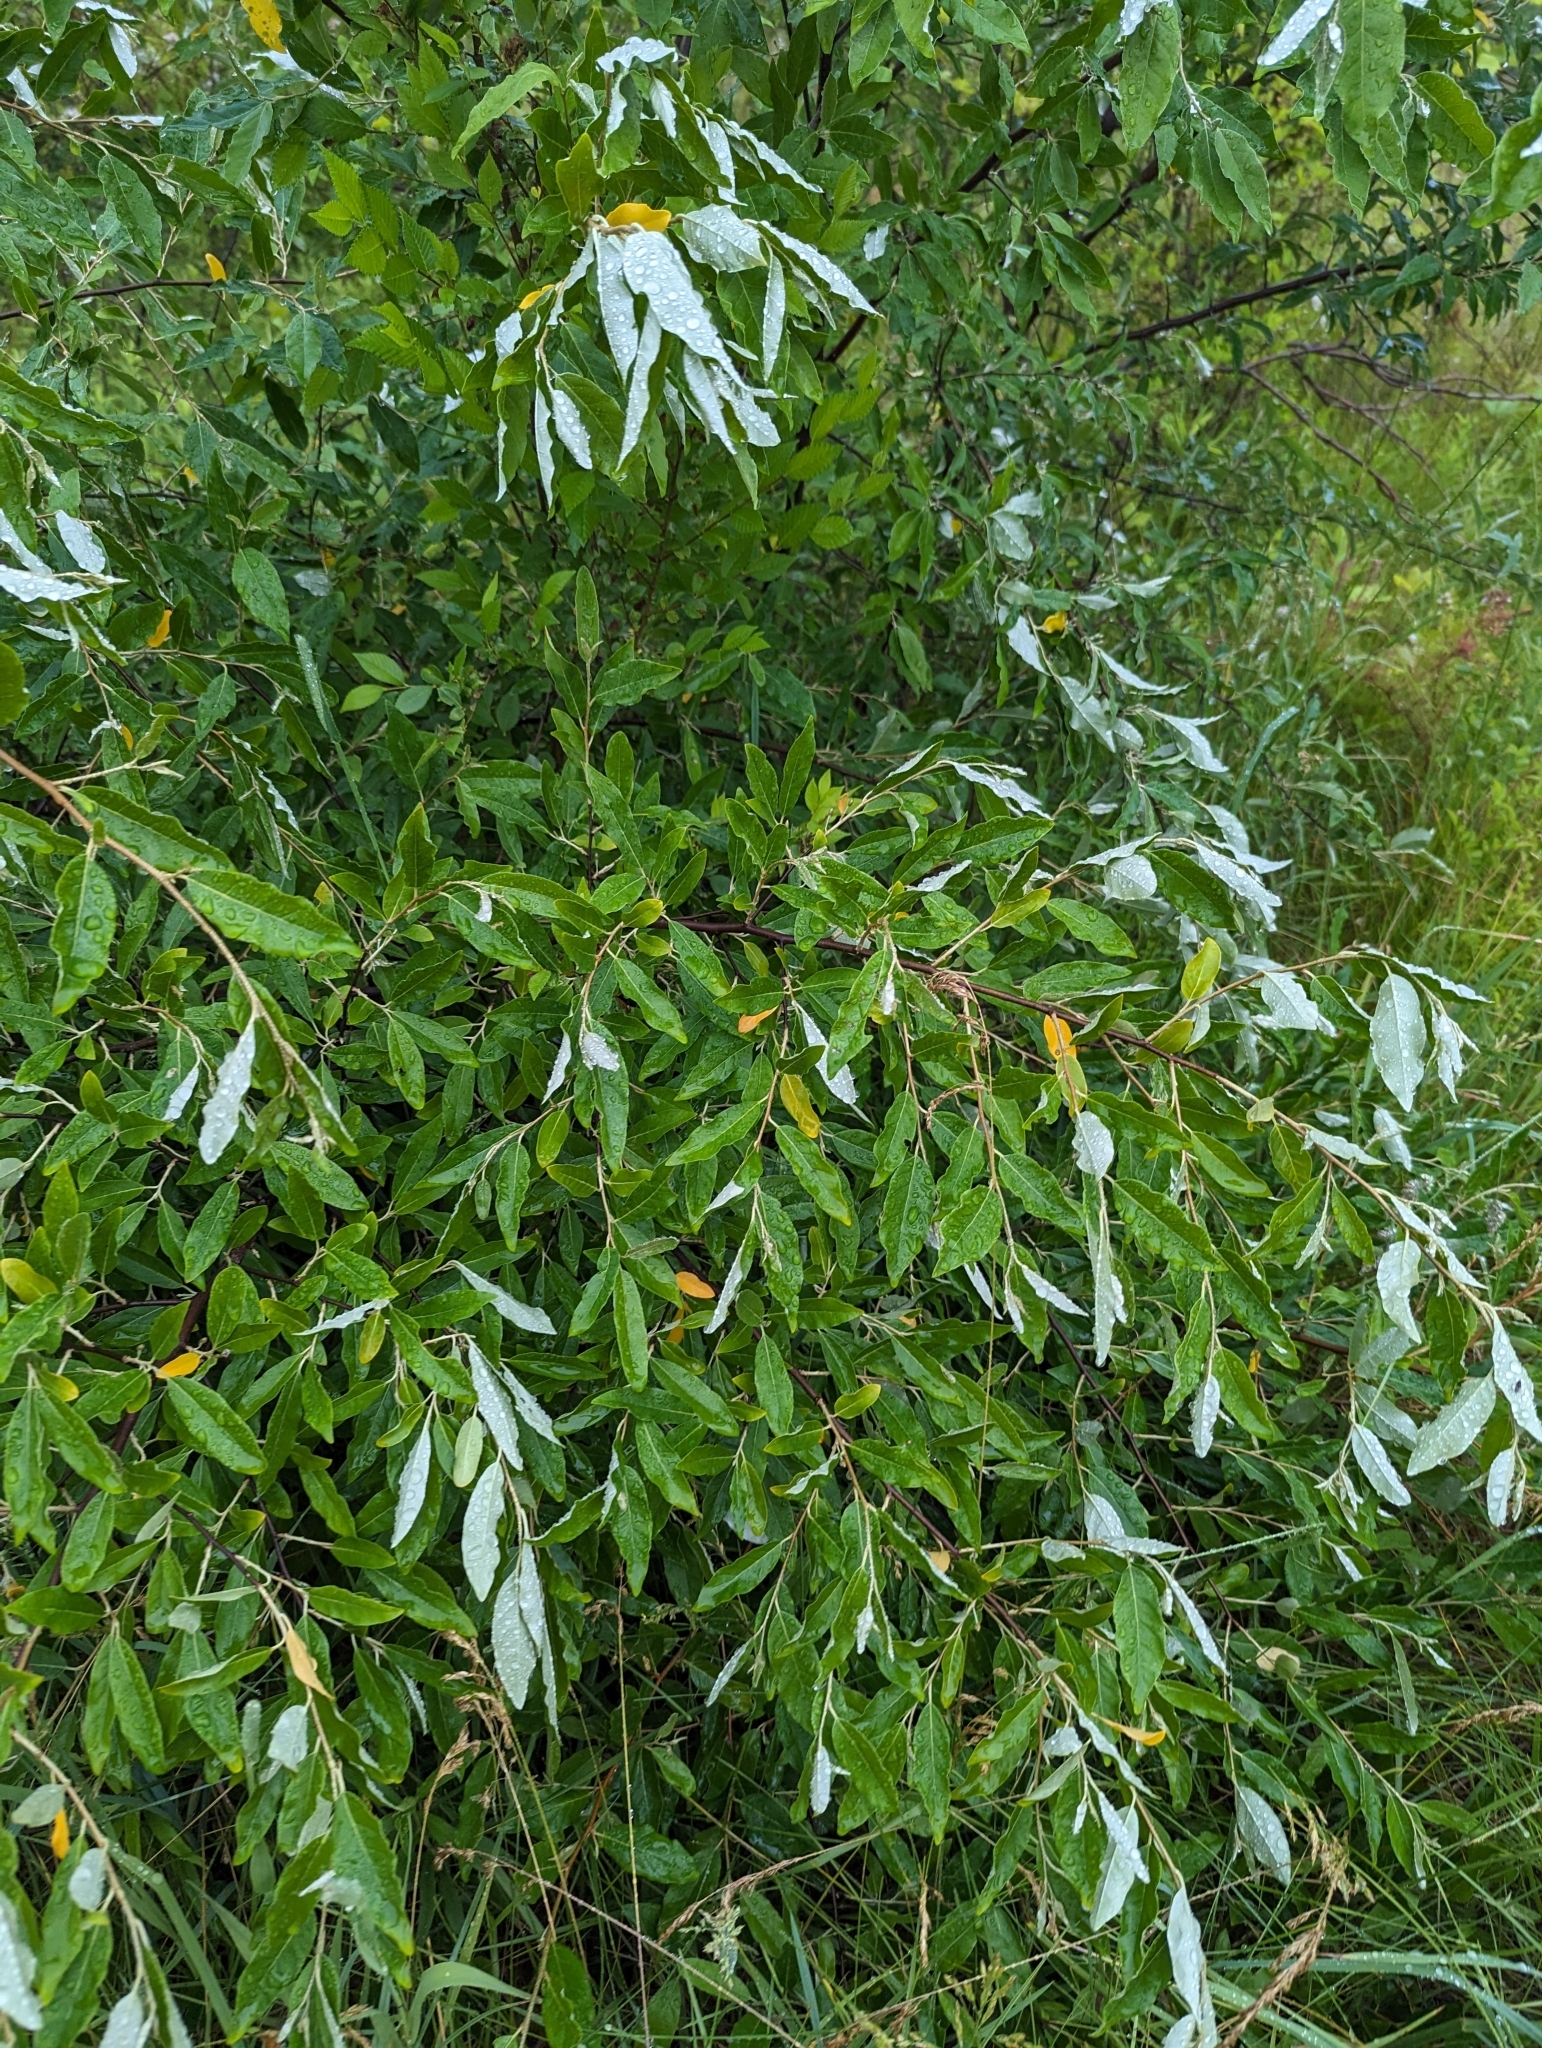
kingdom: Plantae
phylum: Tracheophyta
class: Magnoliopsida
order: Rosales
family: Elaeagnaceae
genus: Elaeagnus
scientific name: Elaeagnus umbellata
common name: Autumn olive
